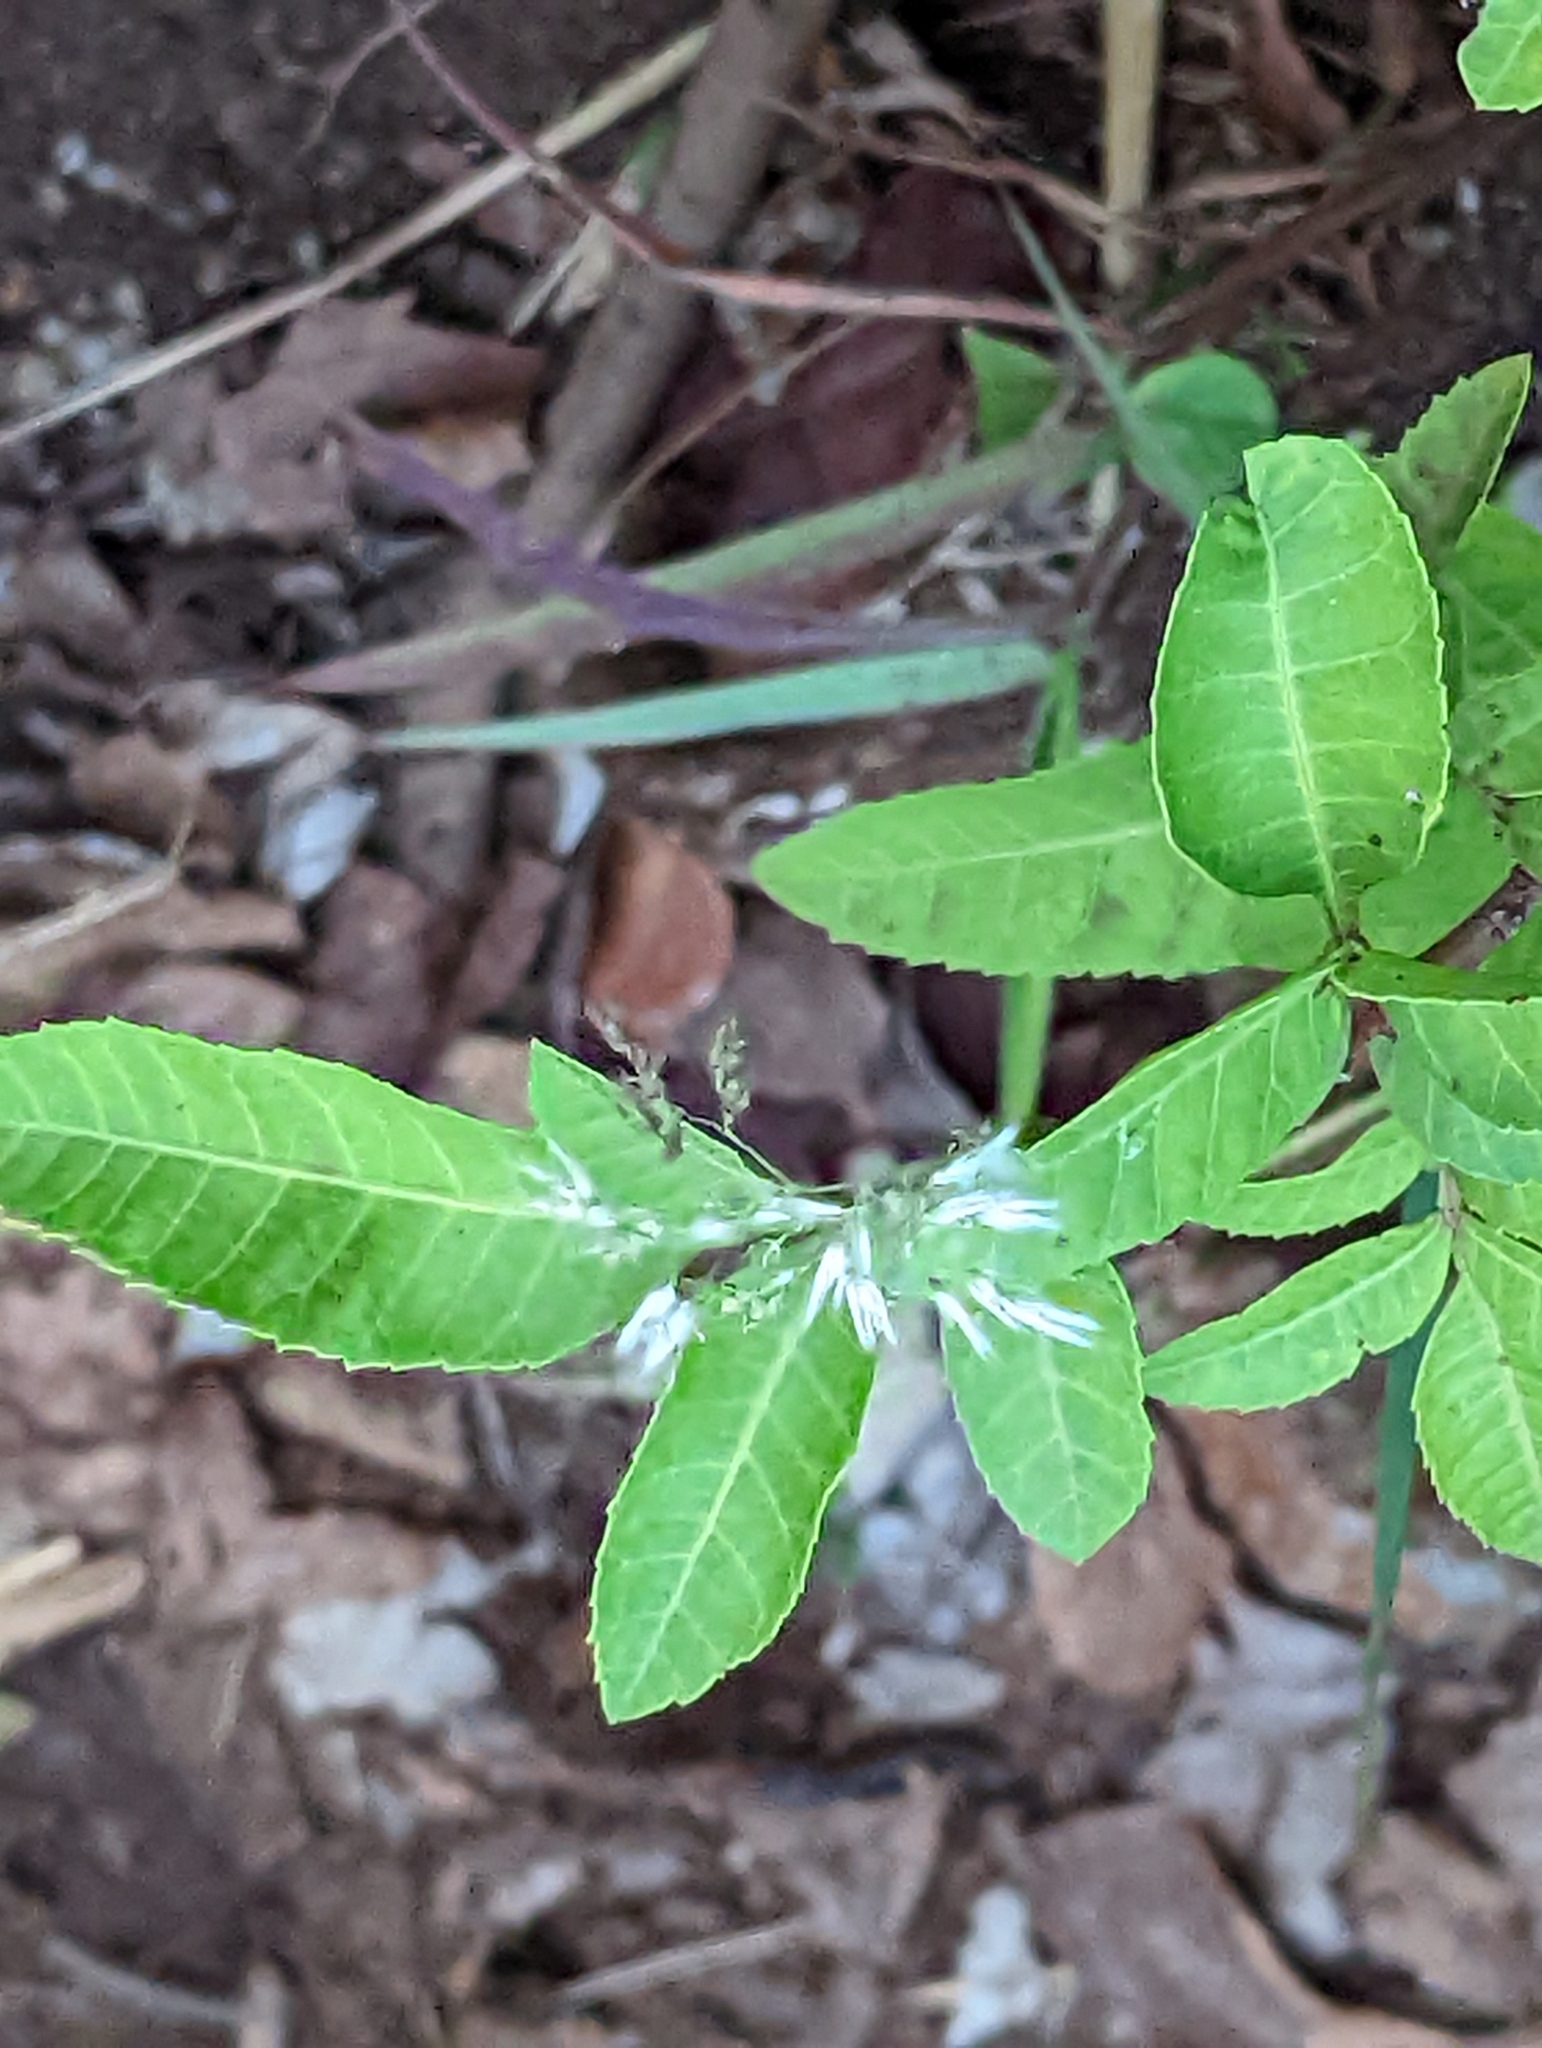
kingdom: Plantae
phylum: Tracheophyta
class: Magnoliopsida
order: Sapindales
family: Anacardiaceae
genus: Schinus
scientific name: Schinus terebinthifolia
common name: Brazilian peppertree
